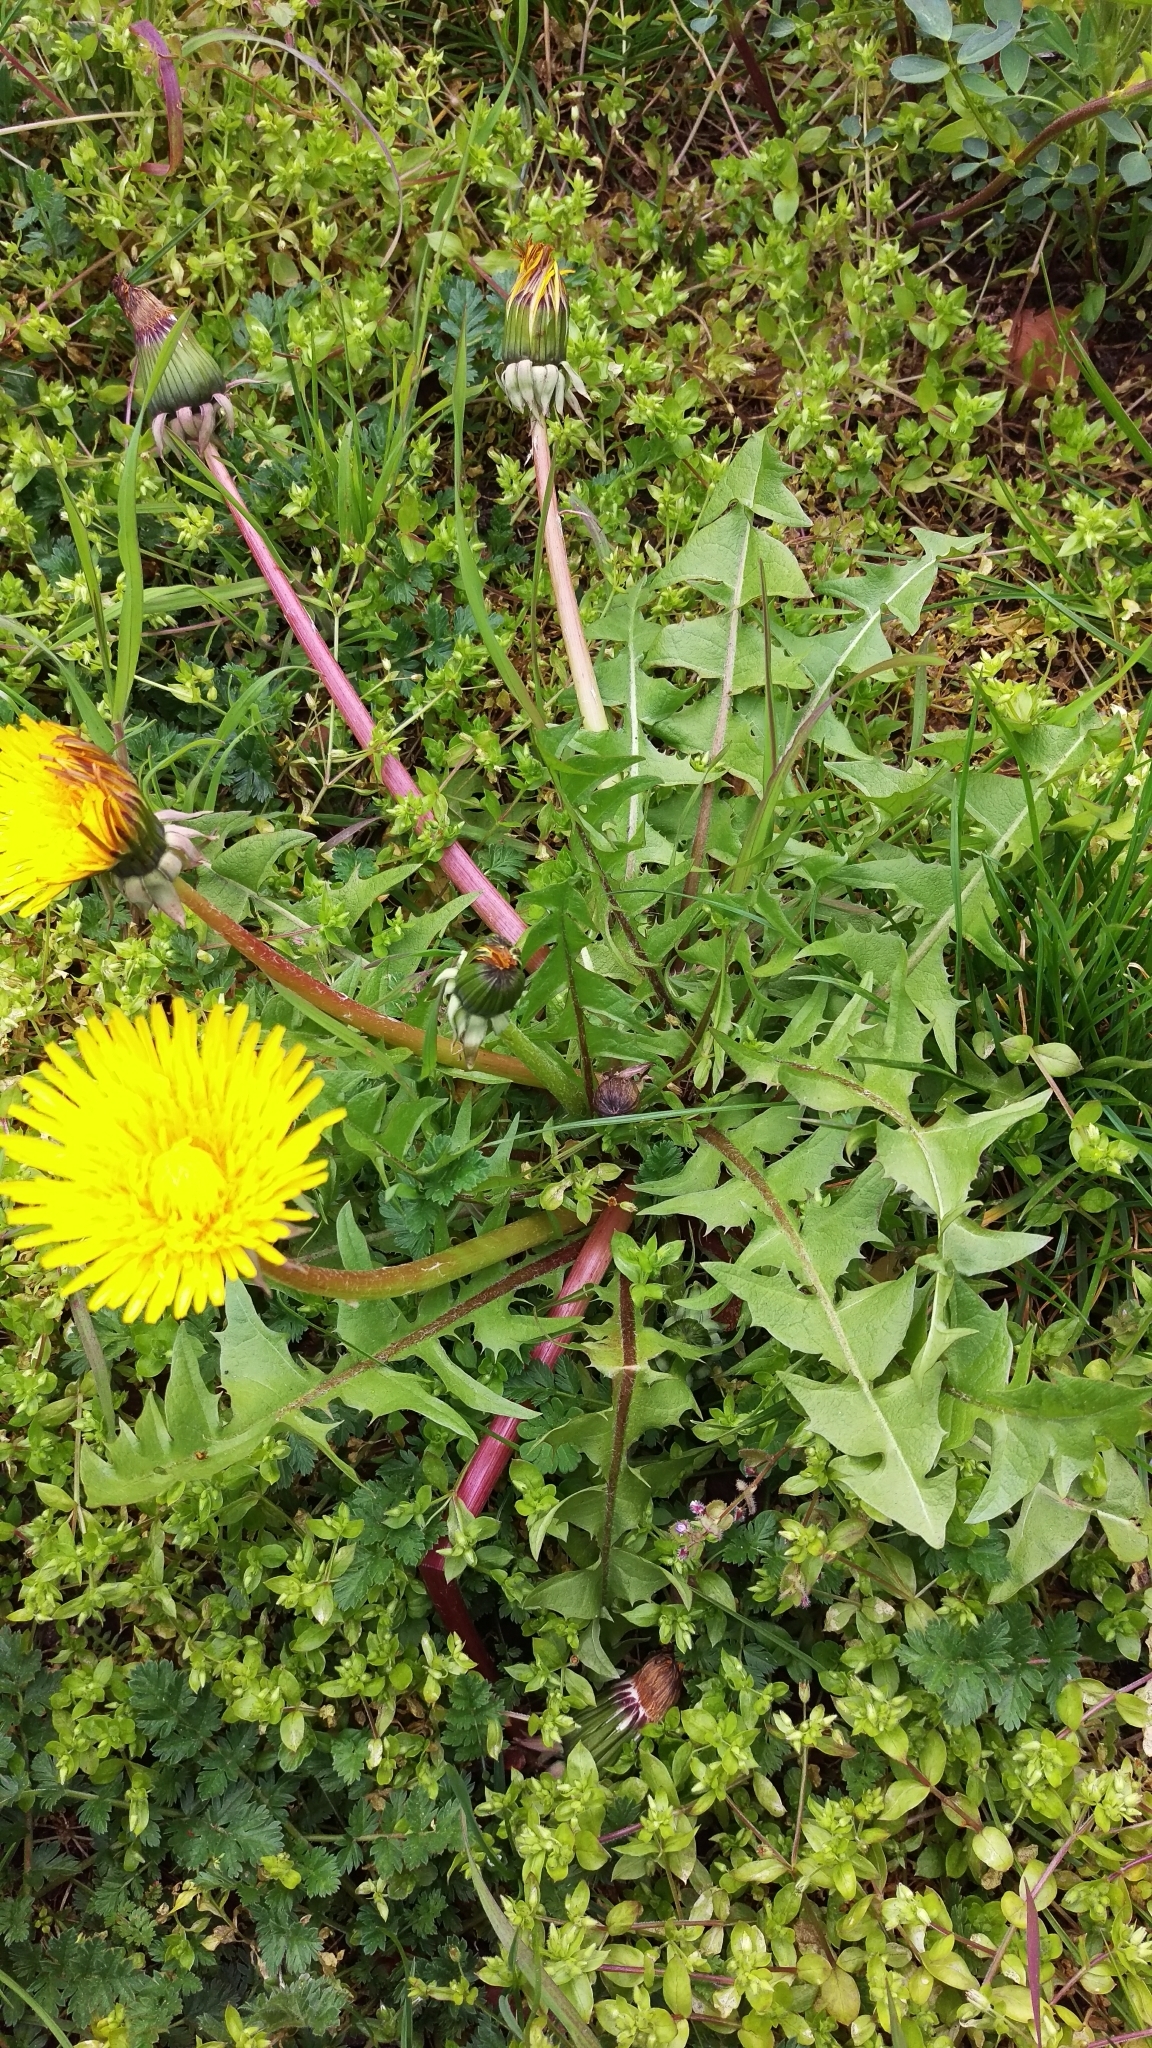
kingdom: Plantae
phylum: Tracheophyta
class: Magnoliopsida
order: Caryophyllales
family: Caryophyllaceae
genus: Stellaria
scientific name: Stellaria media
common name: Common chickweed
